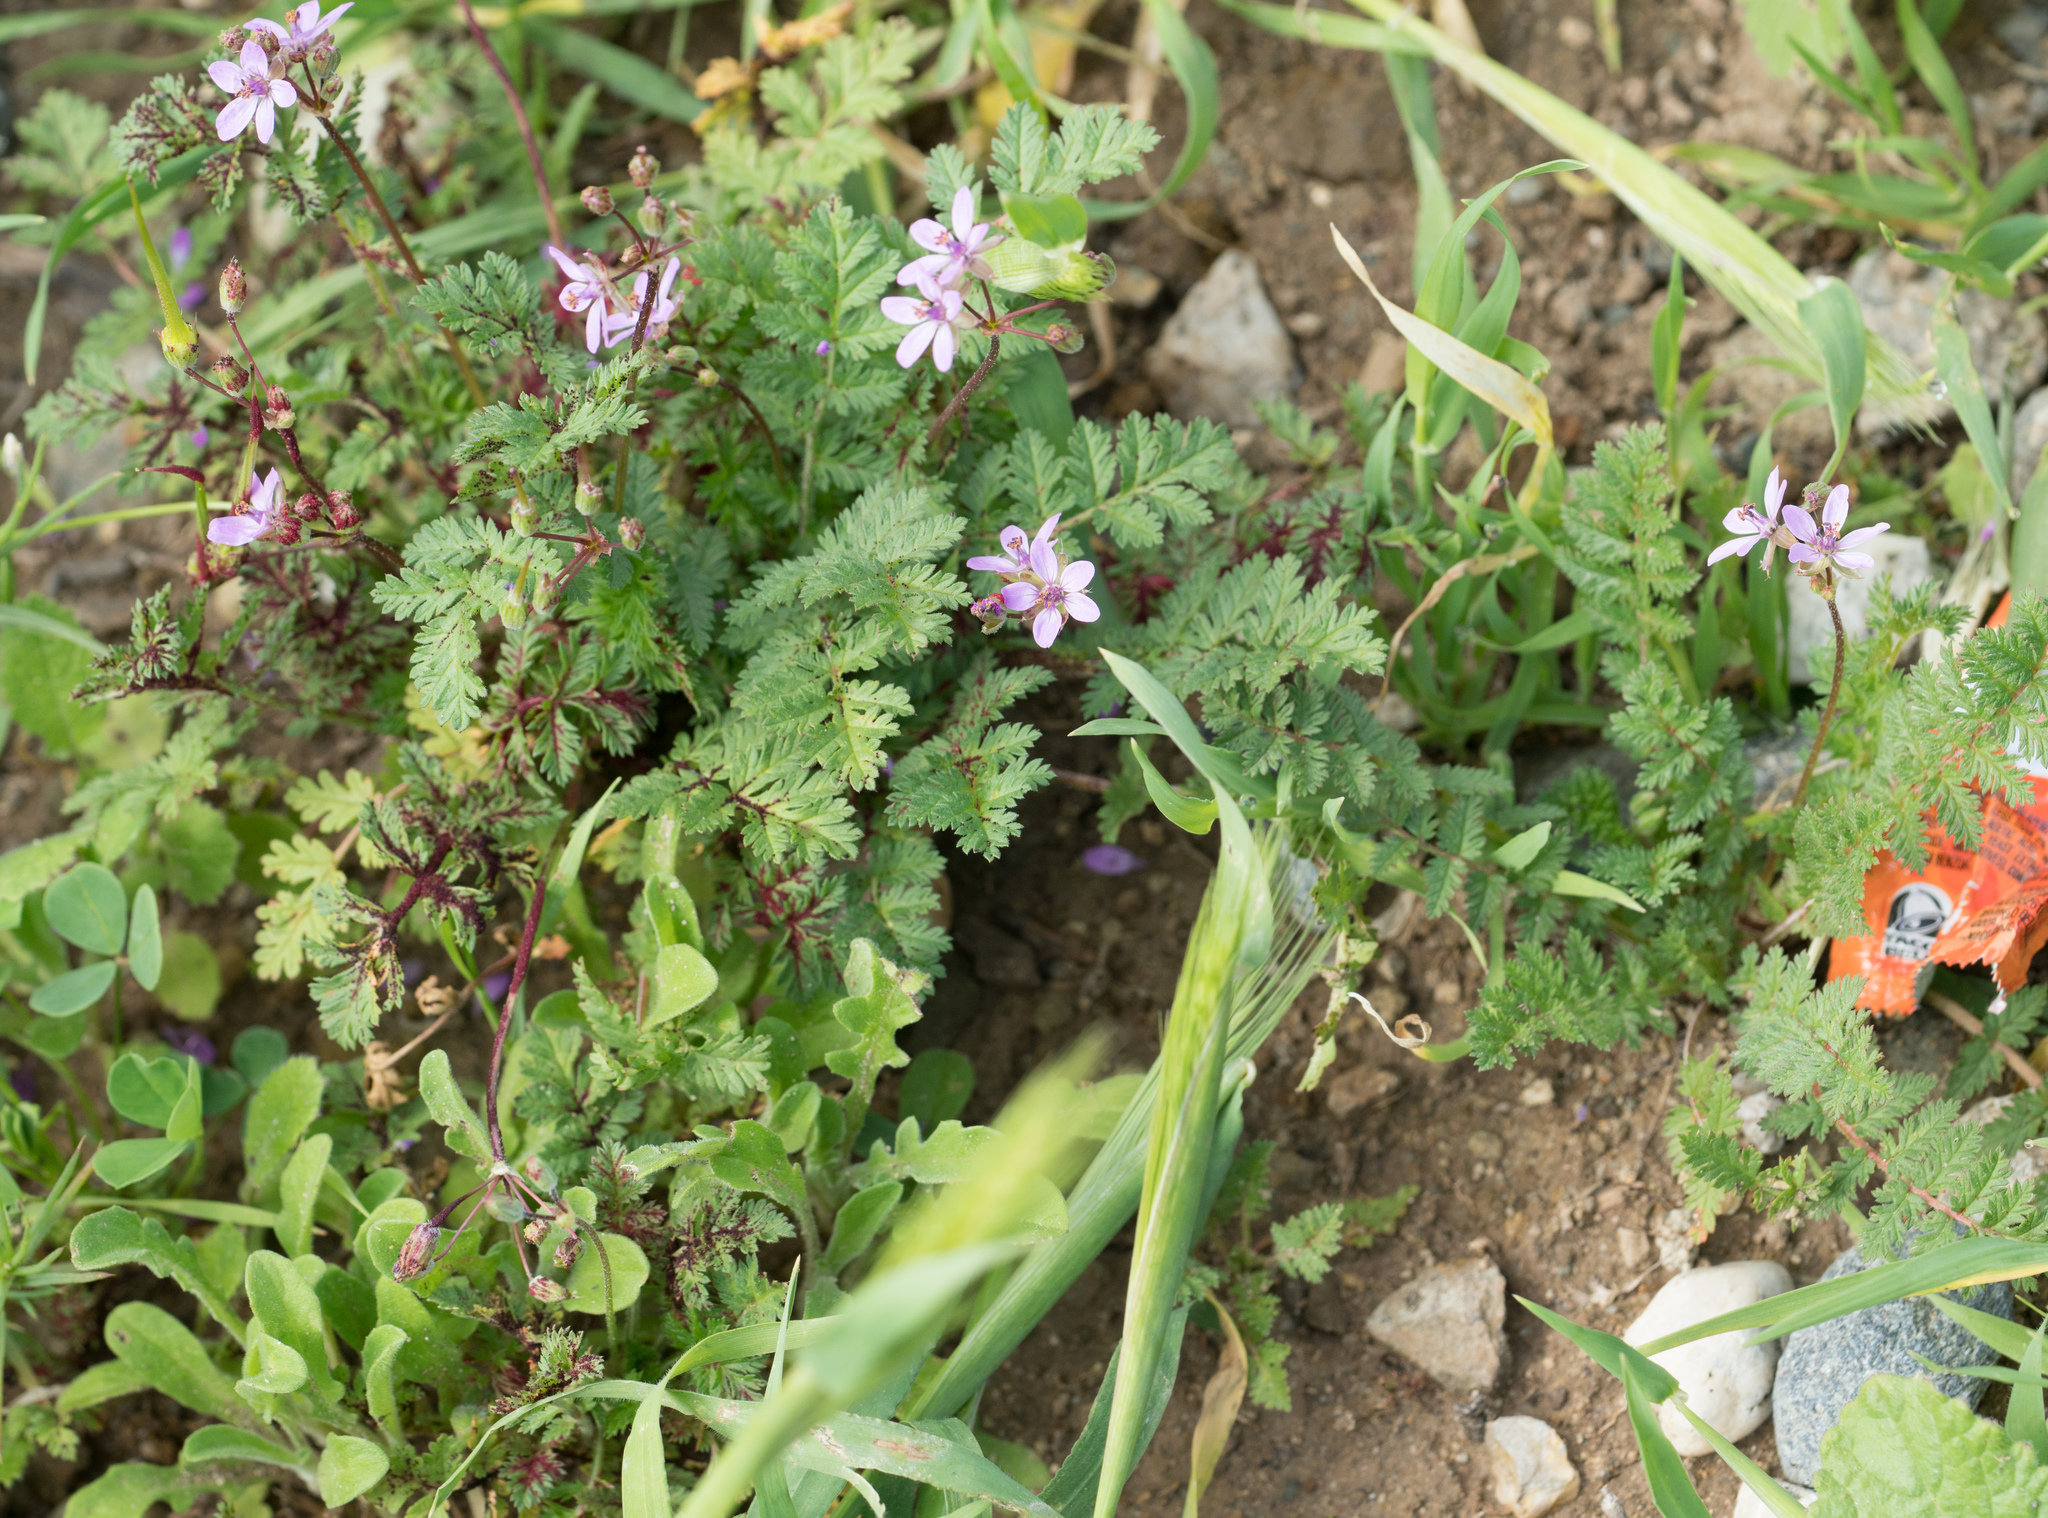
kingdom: Plantae
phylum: Tracheophyta
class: Magnoliopsida
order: Geraniales
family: Geraniaceae
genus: Erodium
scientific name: Erodium cicutarium
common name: Common stork's-bill
